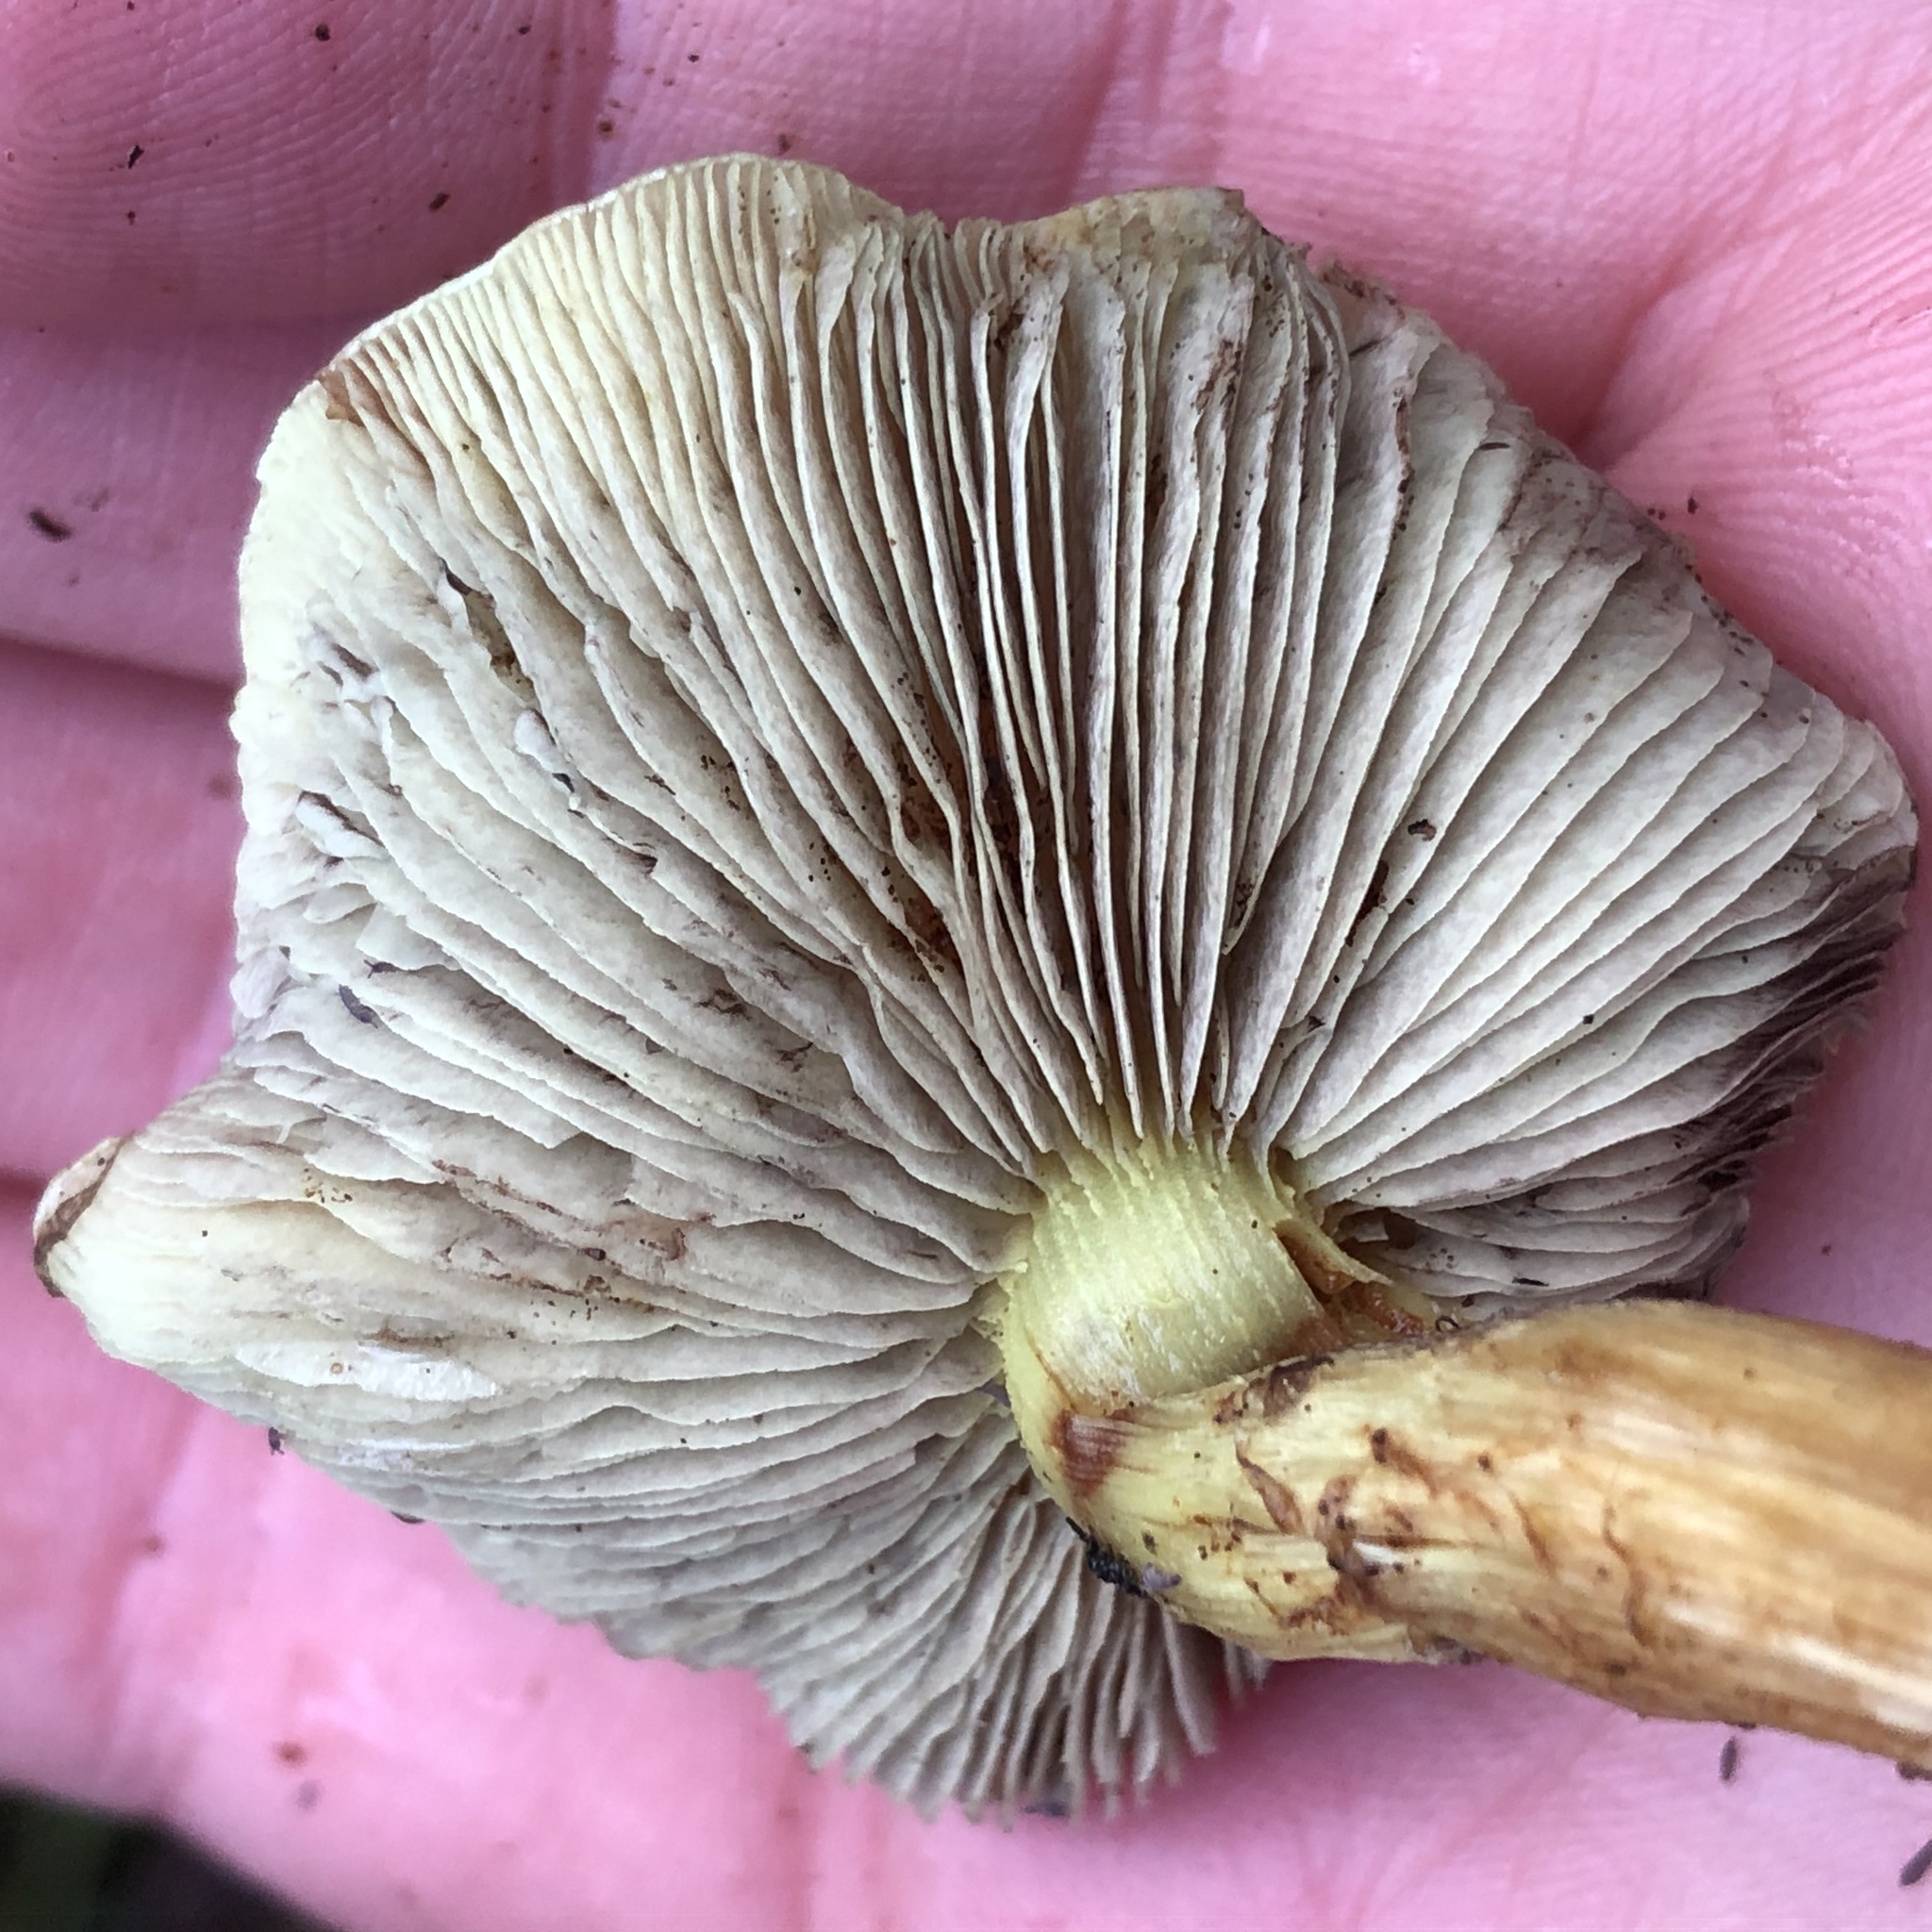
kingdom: Fungi
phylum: Basidiomycota
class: Agaricomycetes
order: Agaricales
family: Strophariaceae
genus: Hypholoma
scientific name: Hypholoma fasciculare
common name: Sulphur tuft
